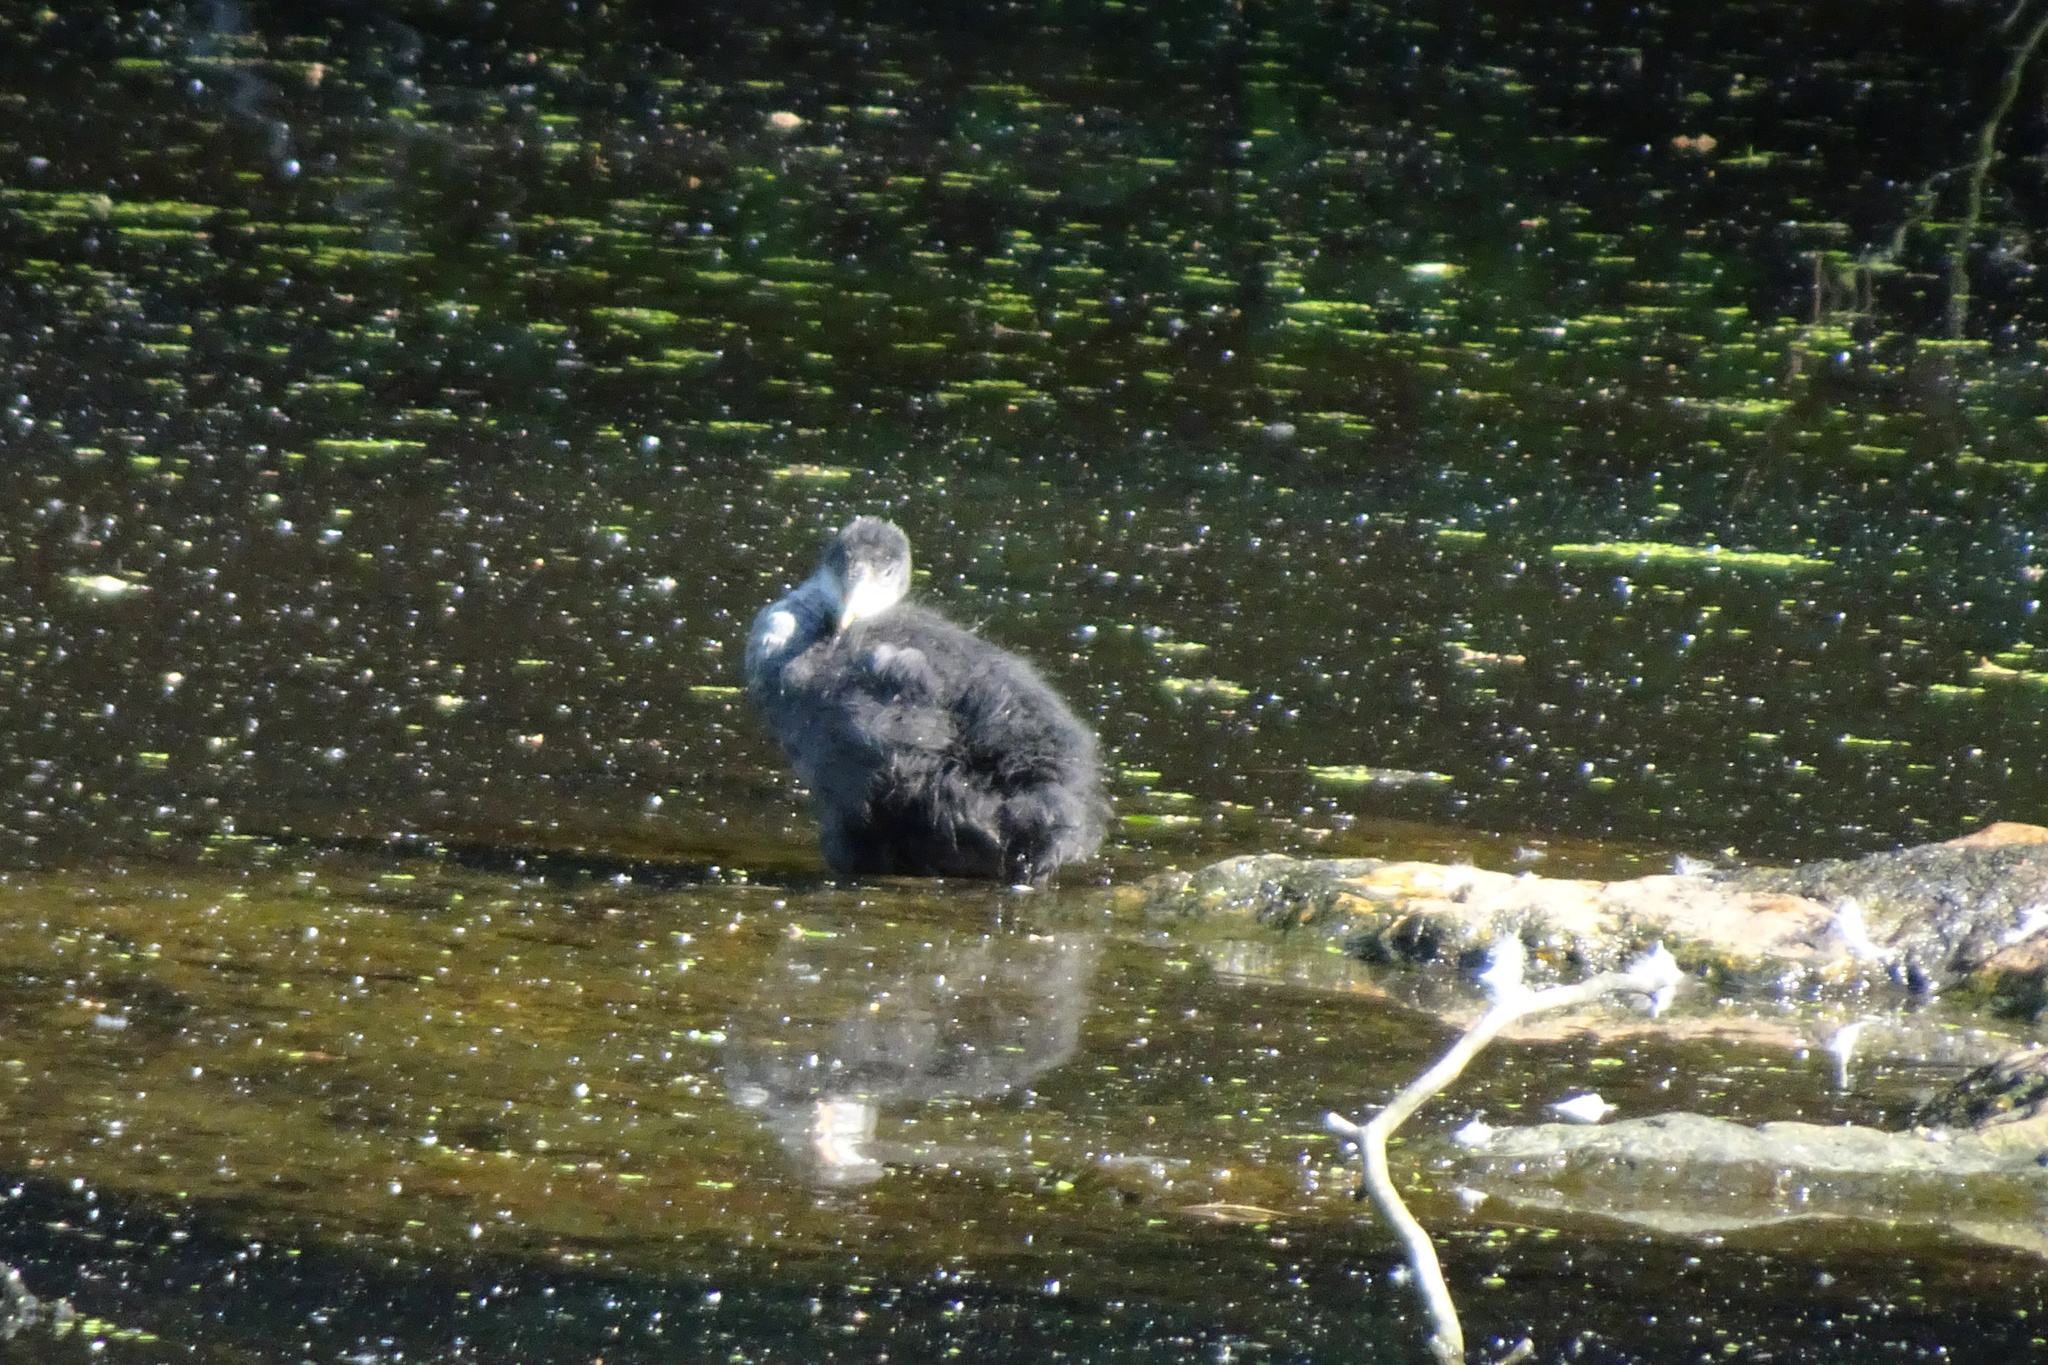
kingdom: Animalia
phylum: Chordata
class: Aves
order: Gruiformes
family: Rallidae
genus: Fulica
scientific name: Fulica atra
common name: Eurasian coot
